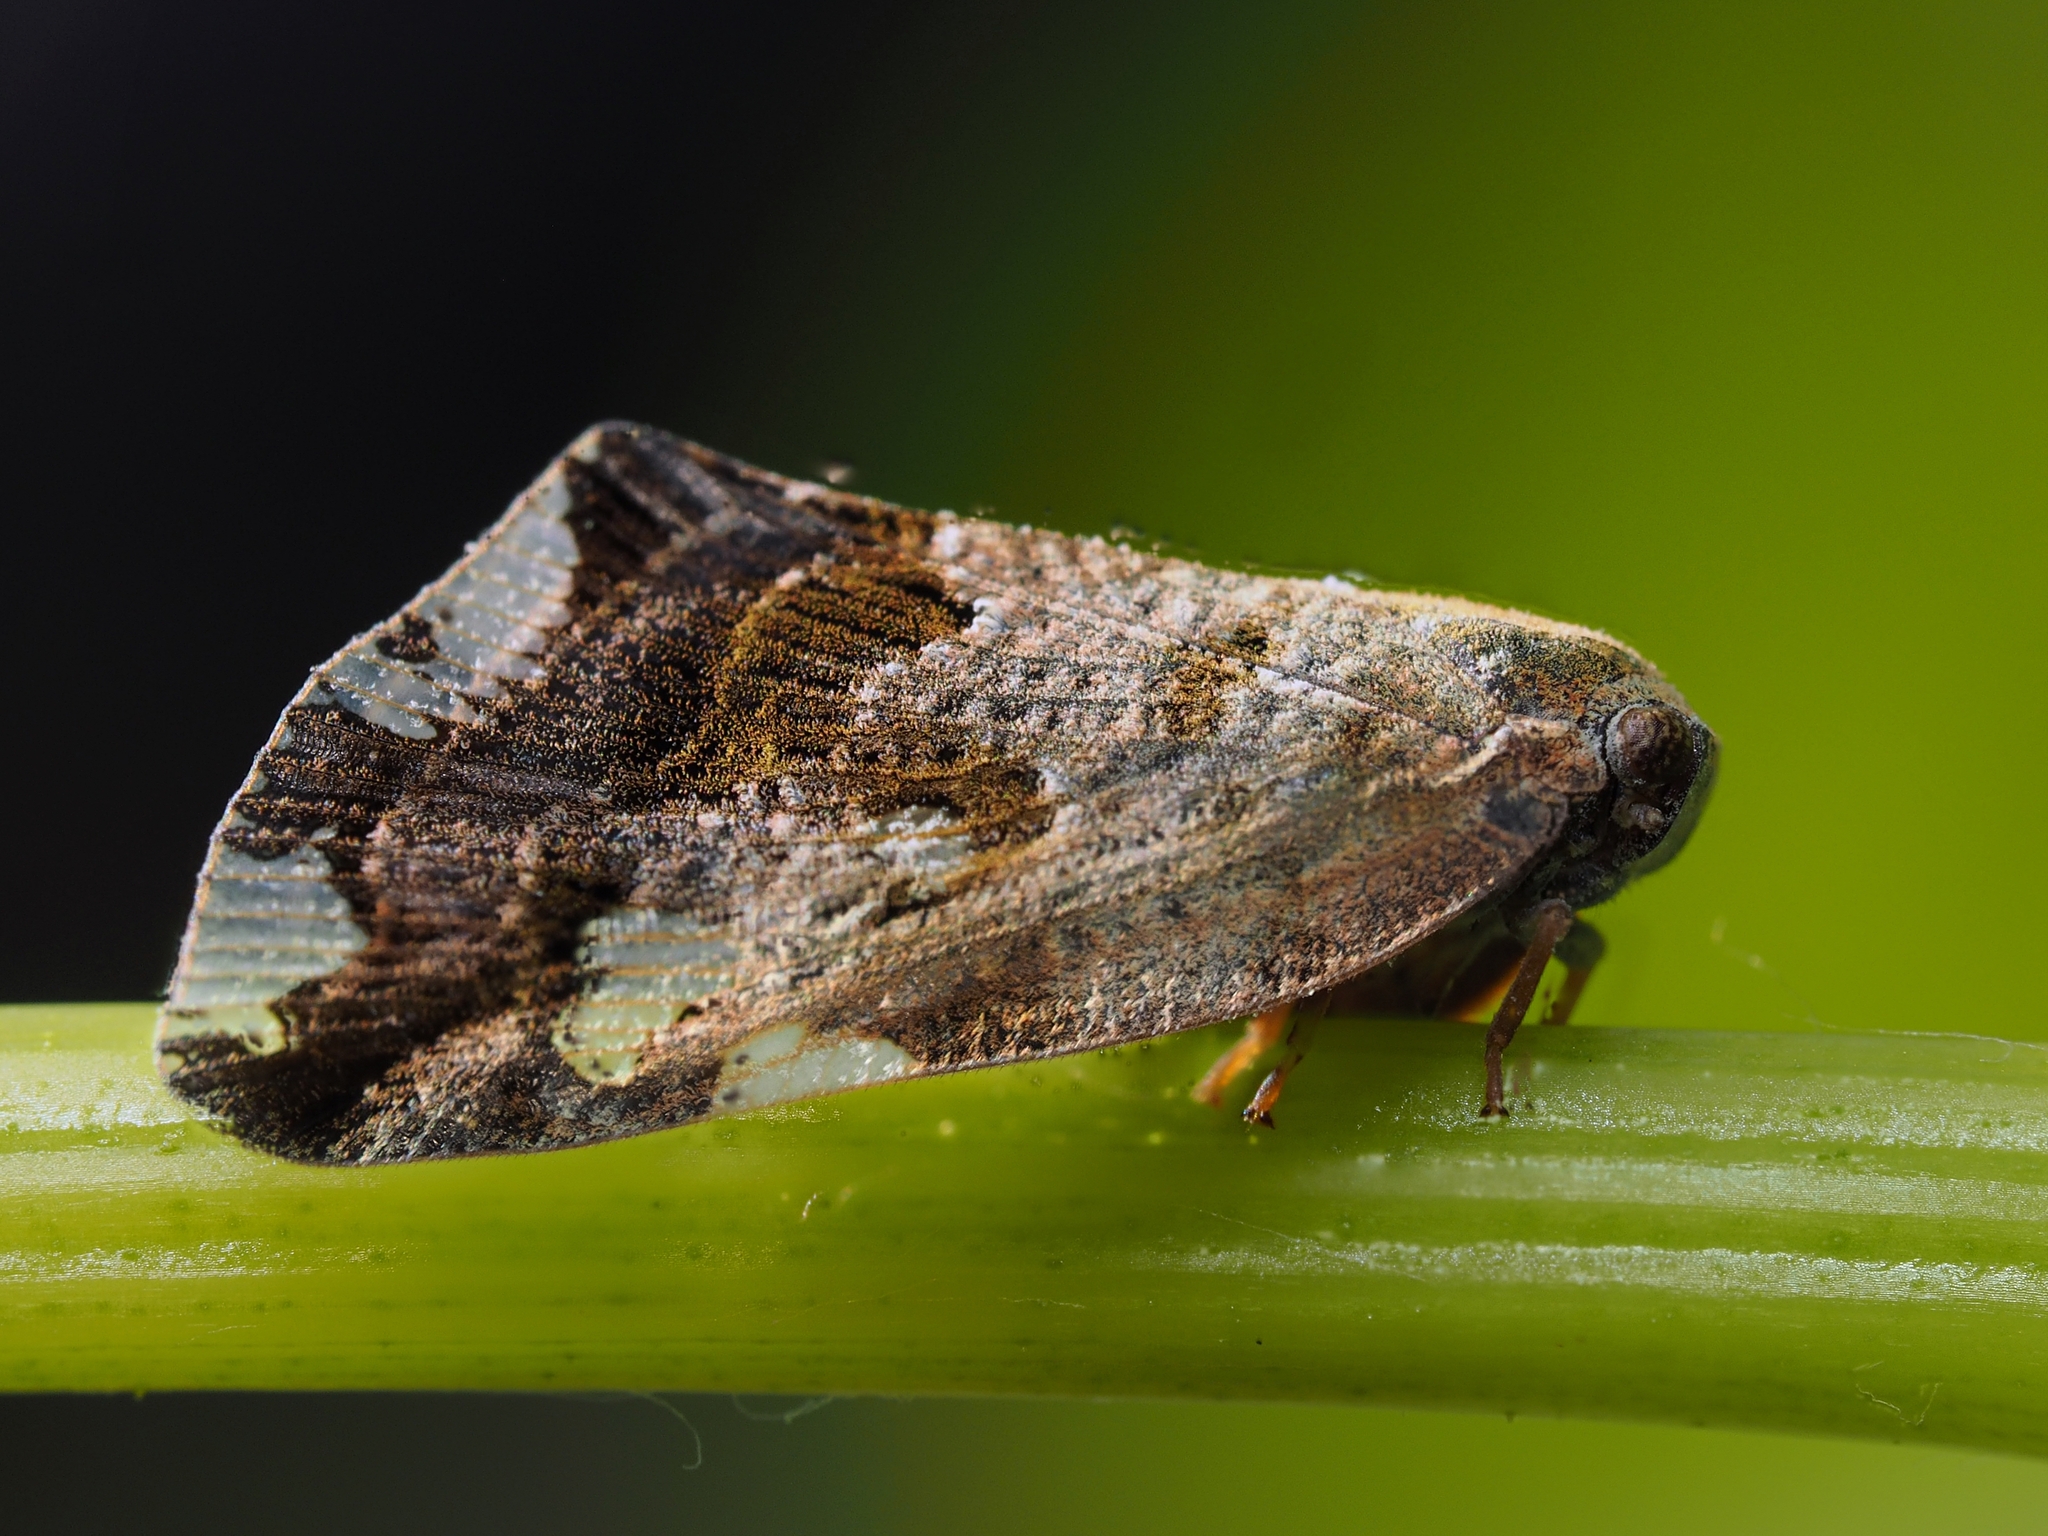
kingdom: Animalia
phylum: Arthropoda
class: Insecta
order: Hemiptera
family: Ricaniidae
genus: Ricania
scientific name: Ricania speculum
